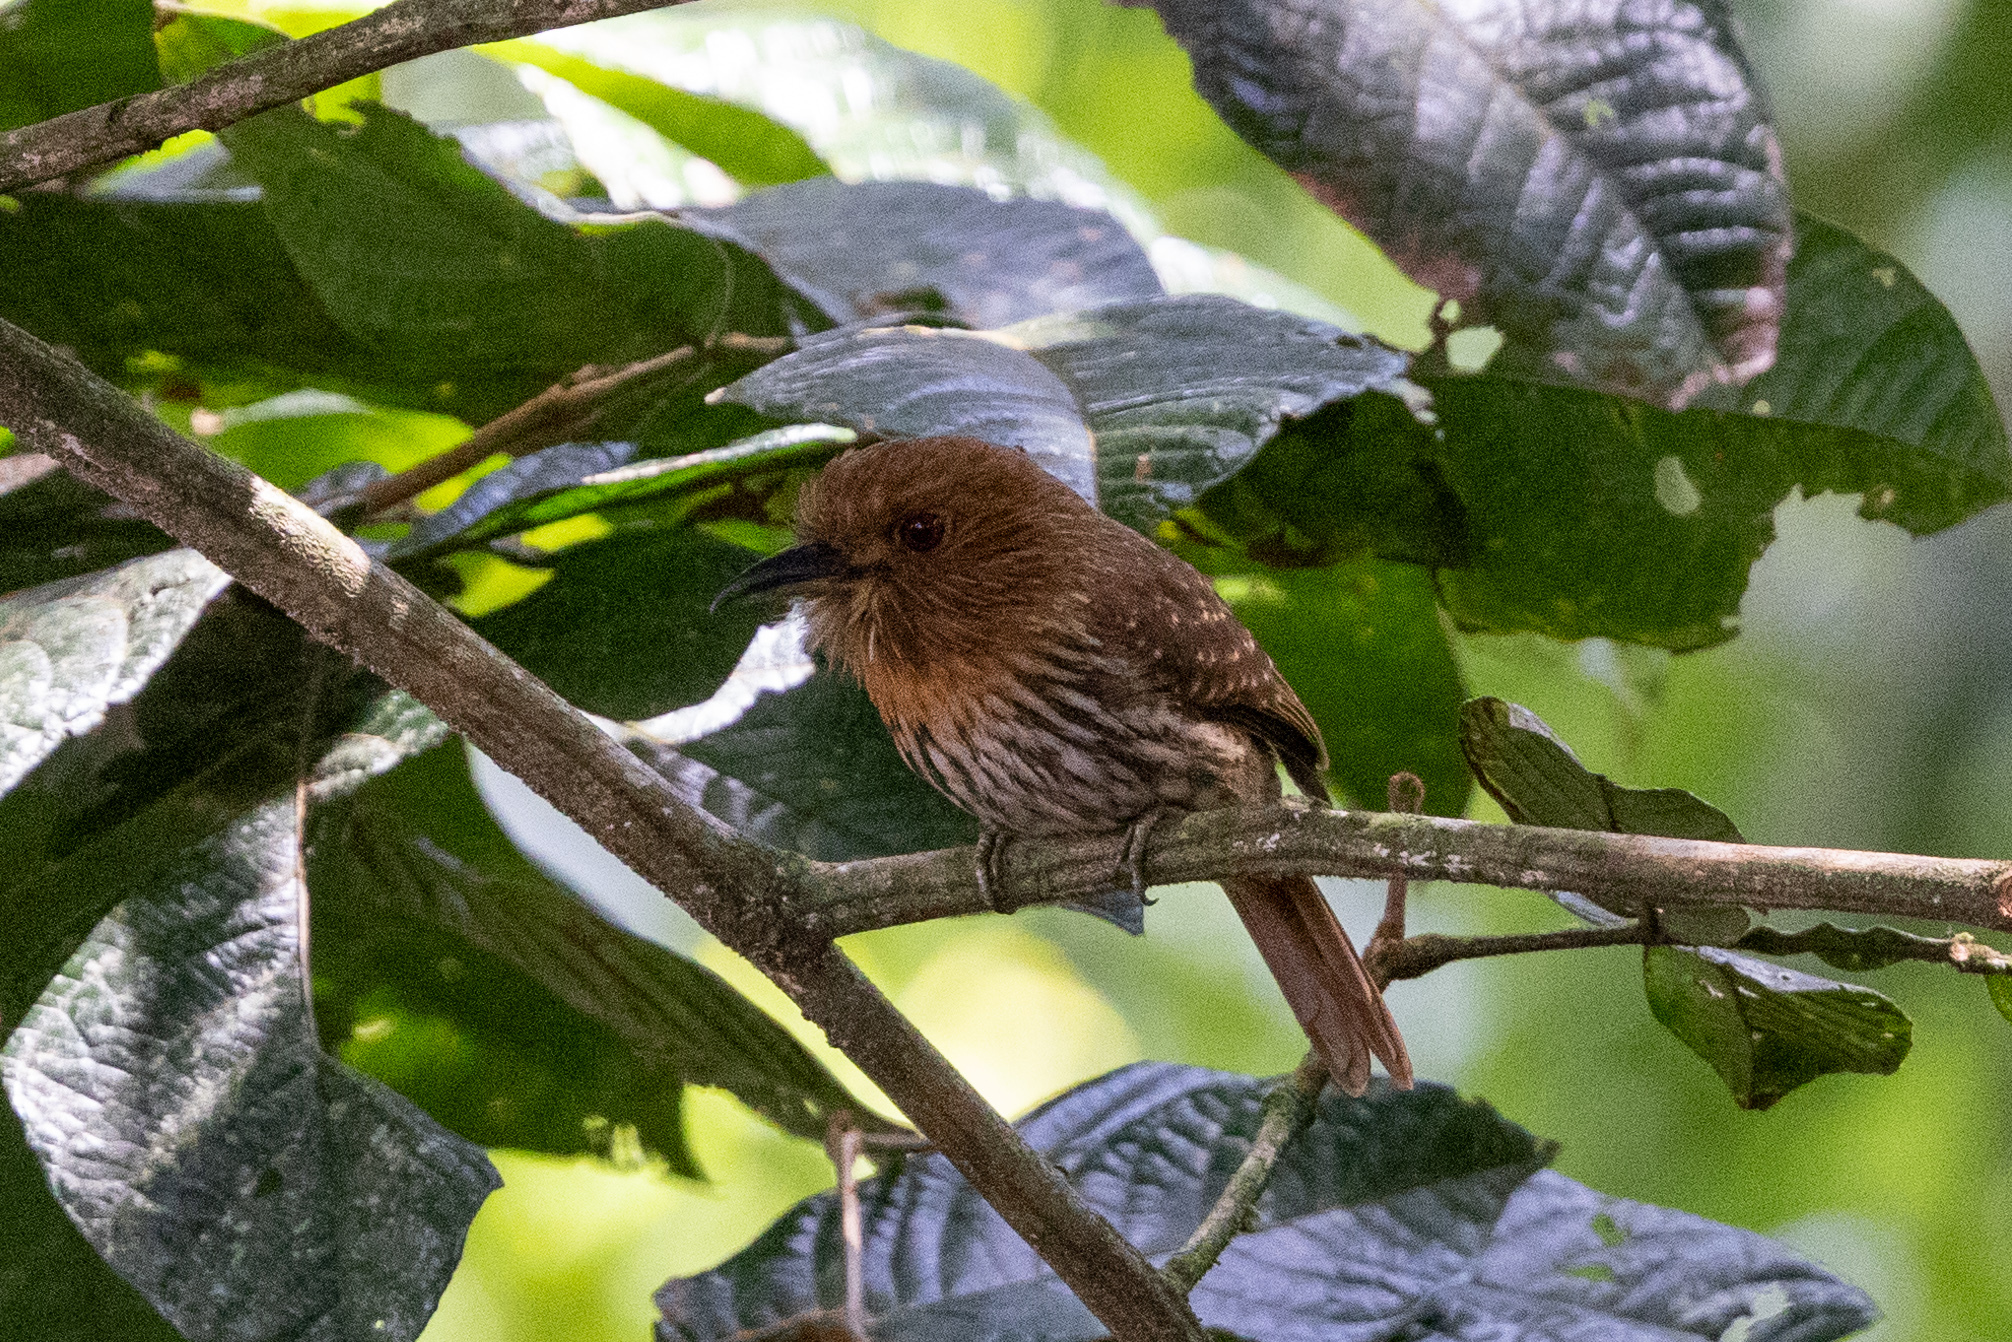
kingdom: Animalia
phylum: Chordata
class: Aves
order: Piciformes
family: Bucconidae
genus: Malacoptila
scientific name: Malacoptila panamensis
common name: White-whiskered puffbird
